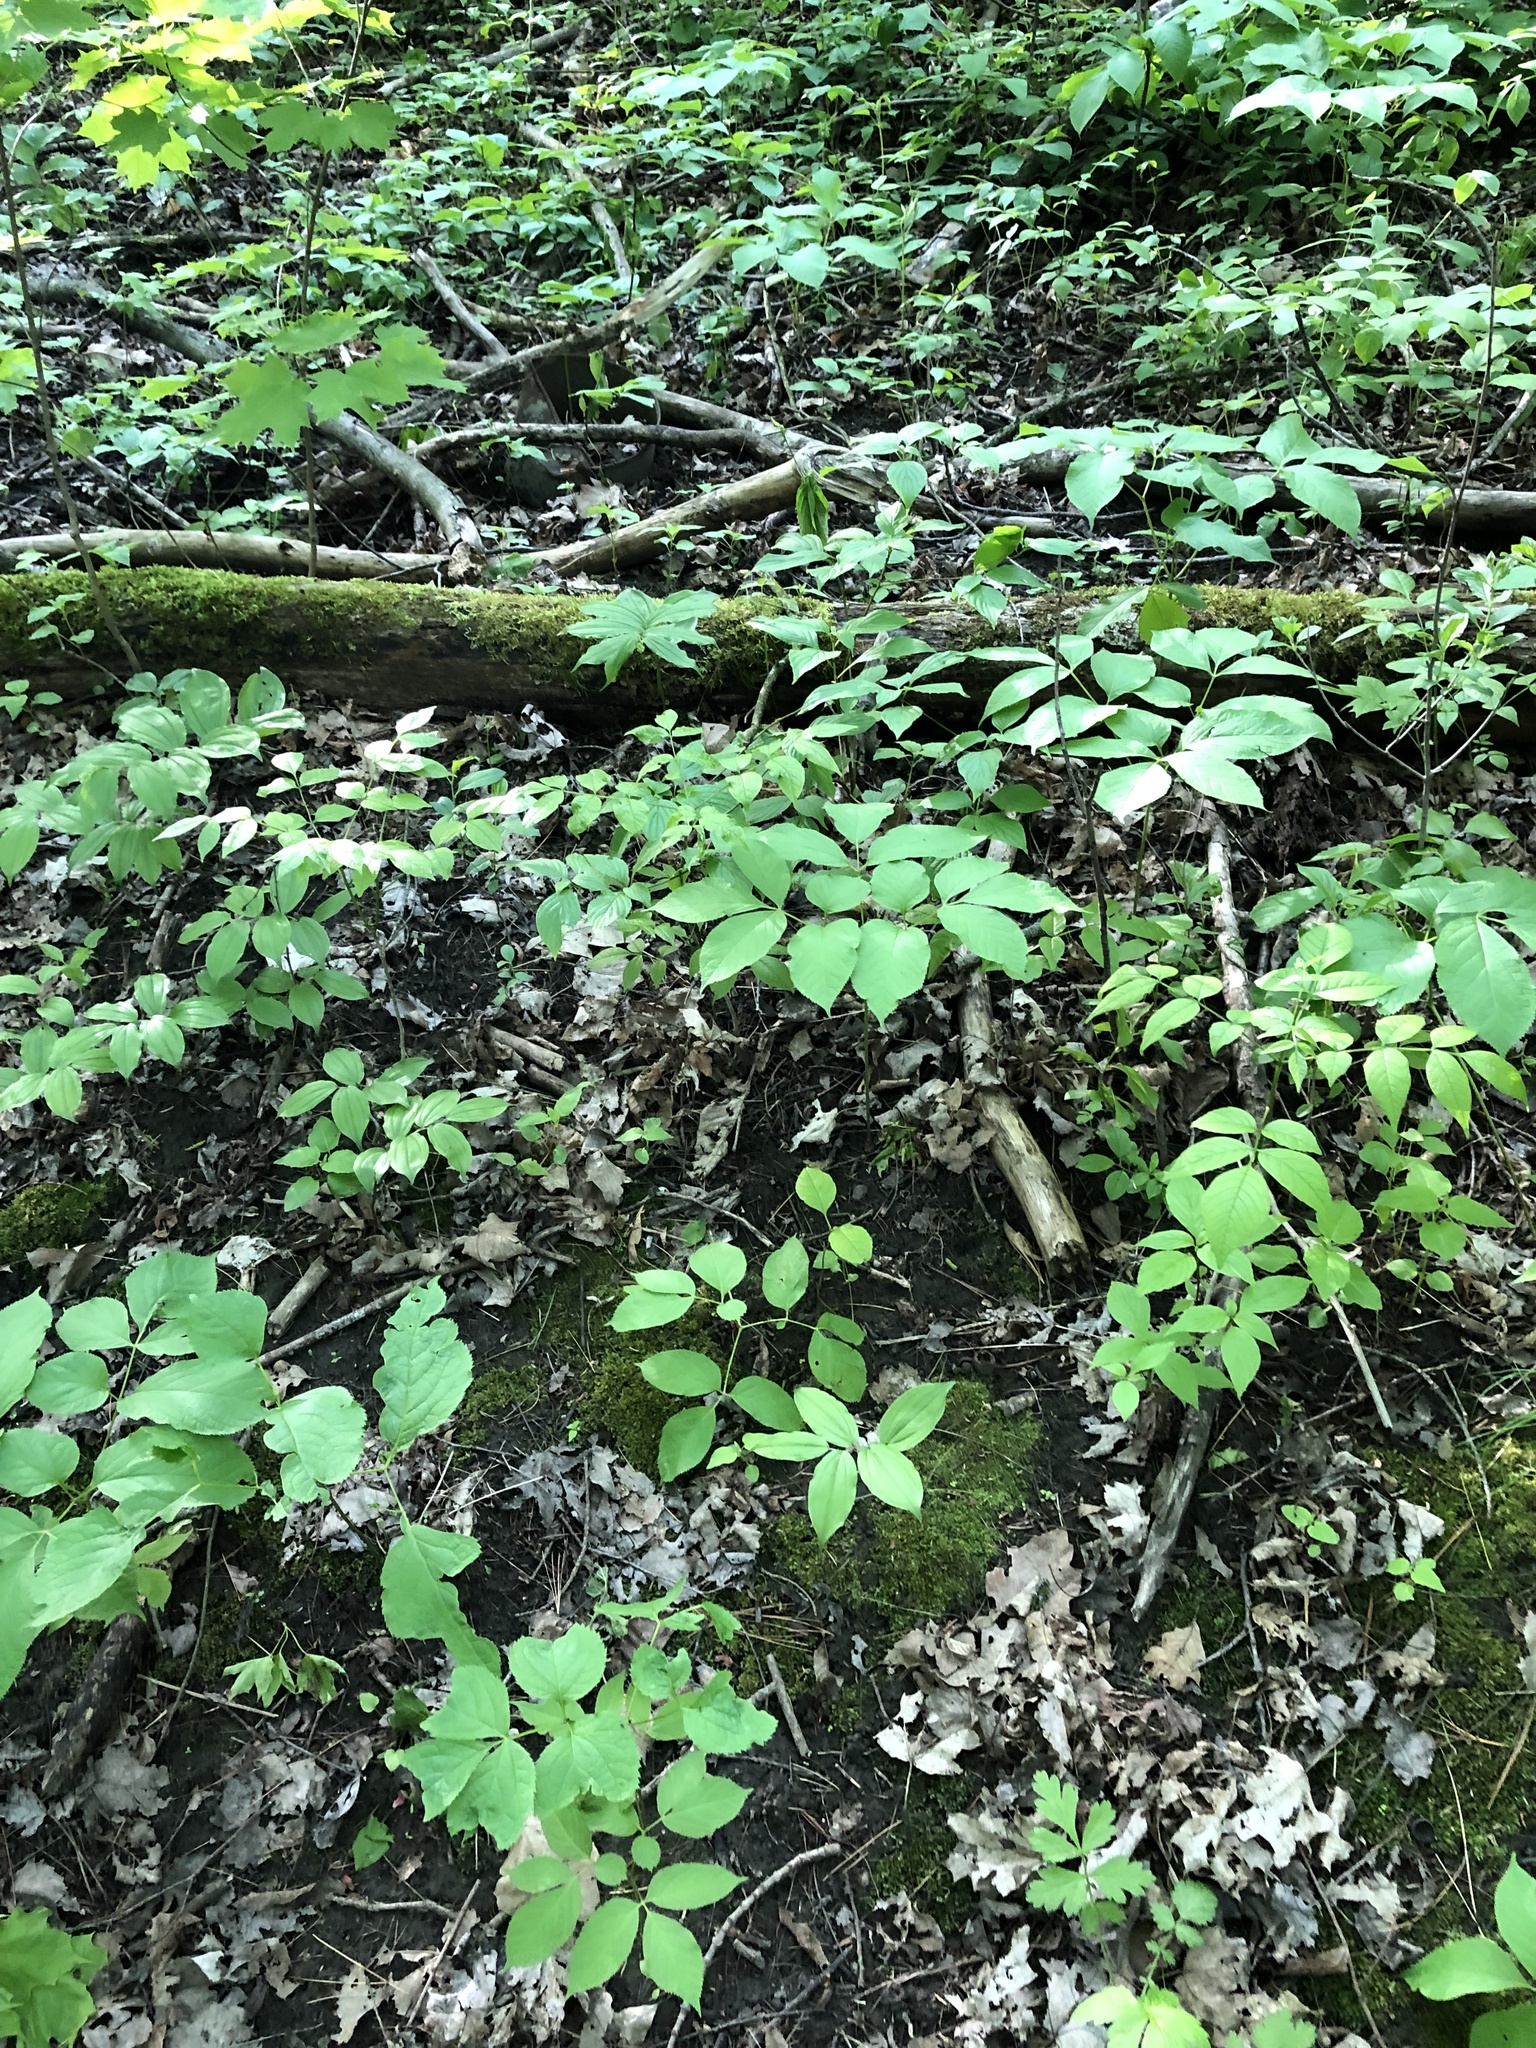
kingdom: Plantae
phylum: Tracheophyta
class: Magnoliopsida
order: Apiales
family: Araliaceae
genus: Aralia
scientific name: Aralia nudicaulis
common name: Wild sarsaparilla
